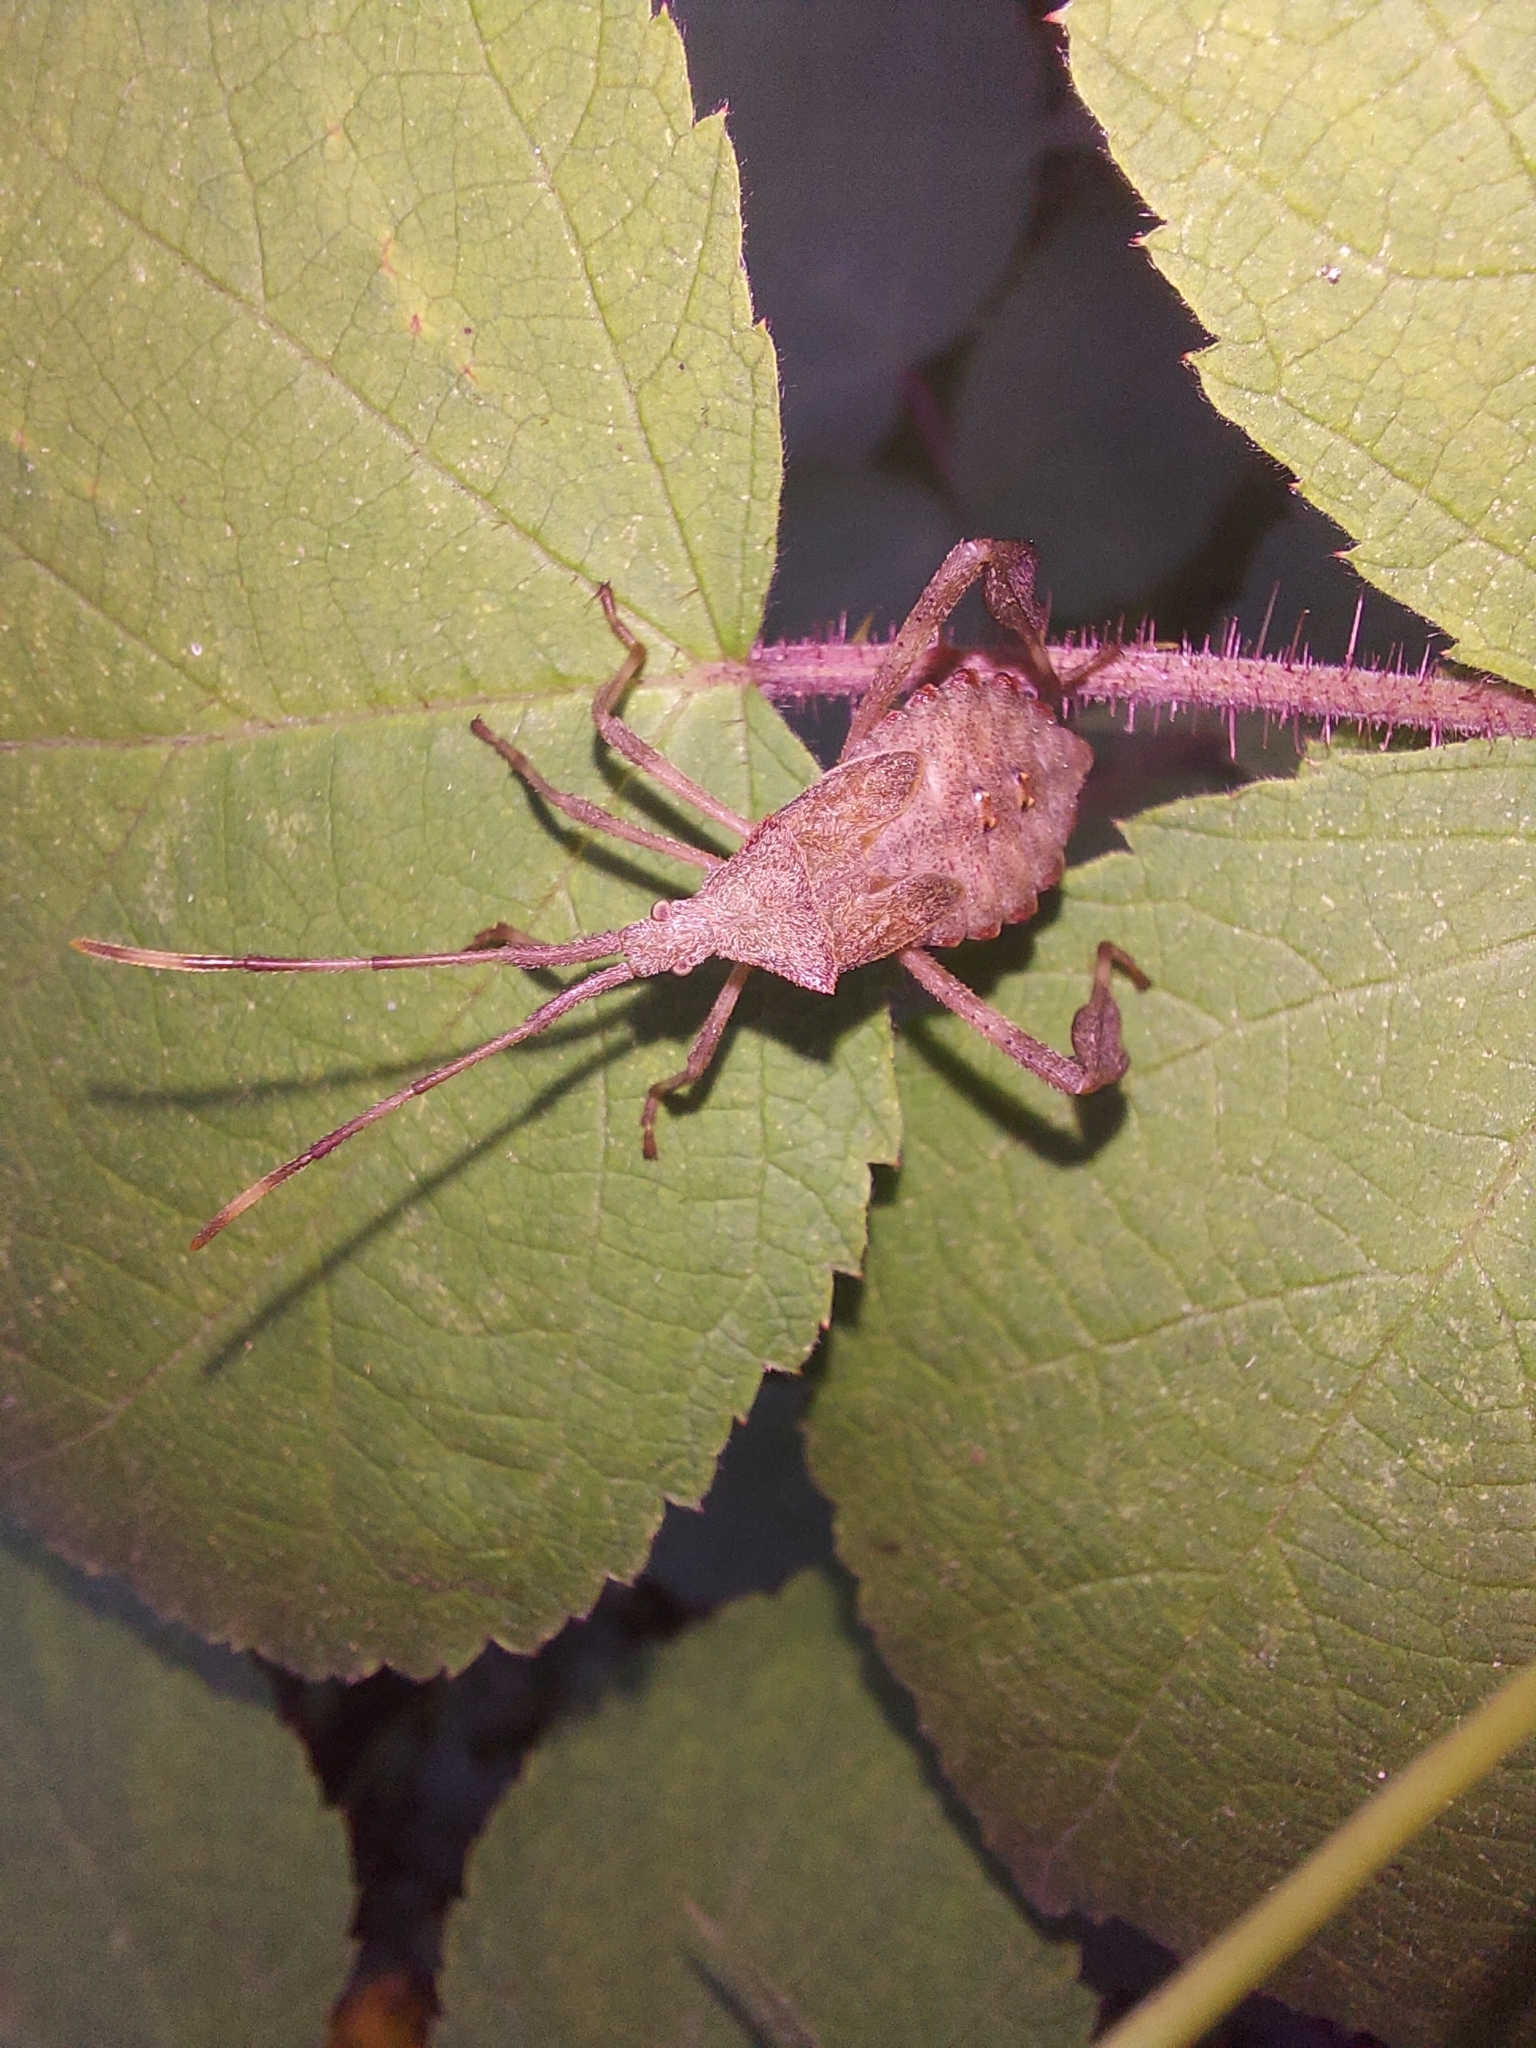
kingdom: Animalia
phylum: Arthropoda
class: Insecta
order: Hemiptera
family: Coreidae
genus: Acanthocephala
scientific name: Acanthocephala terminalis
